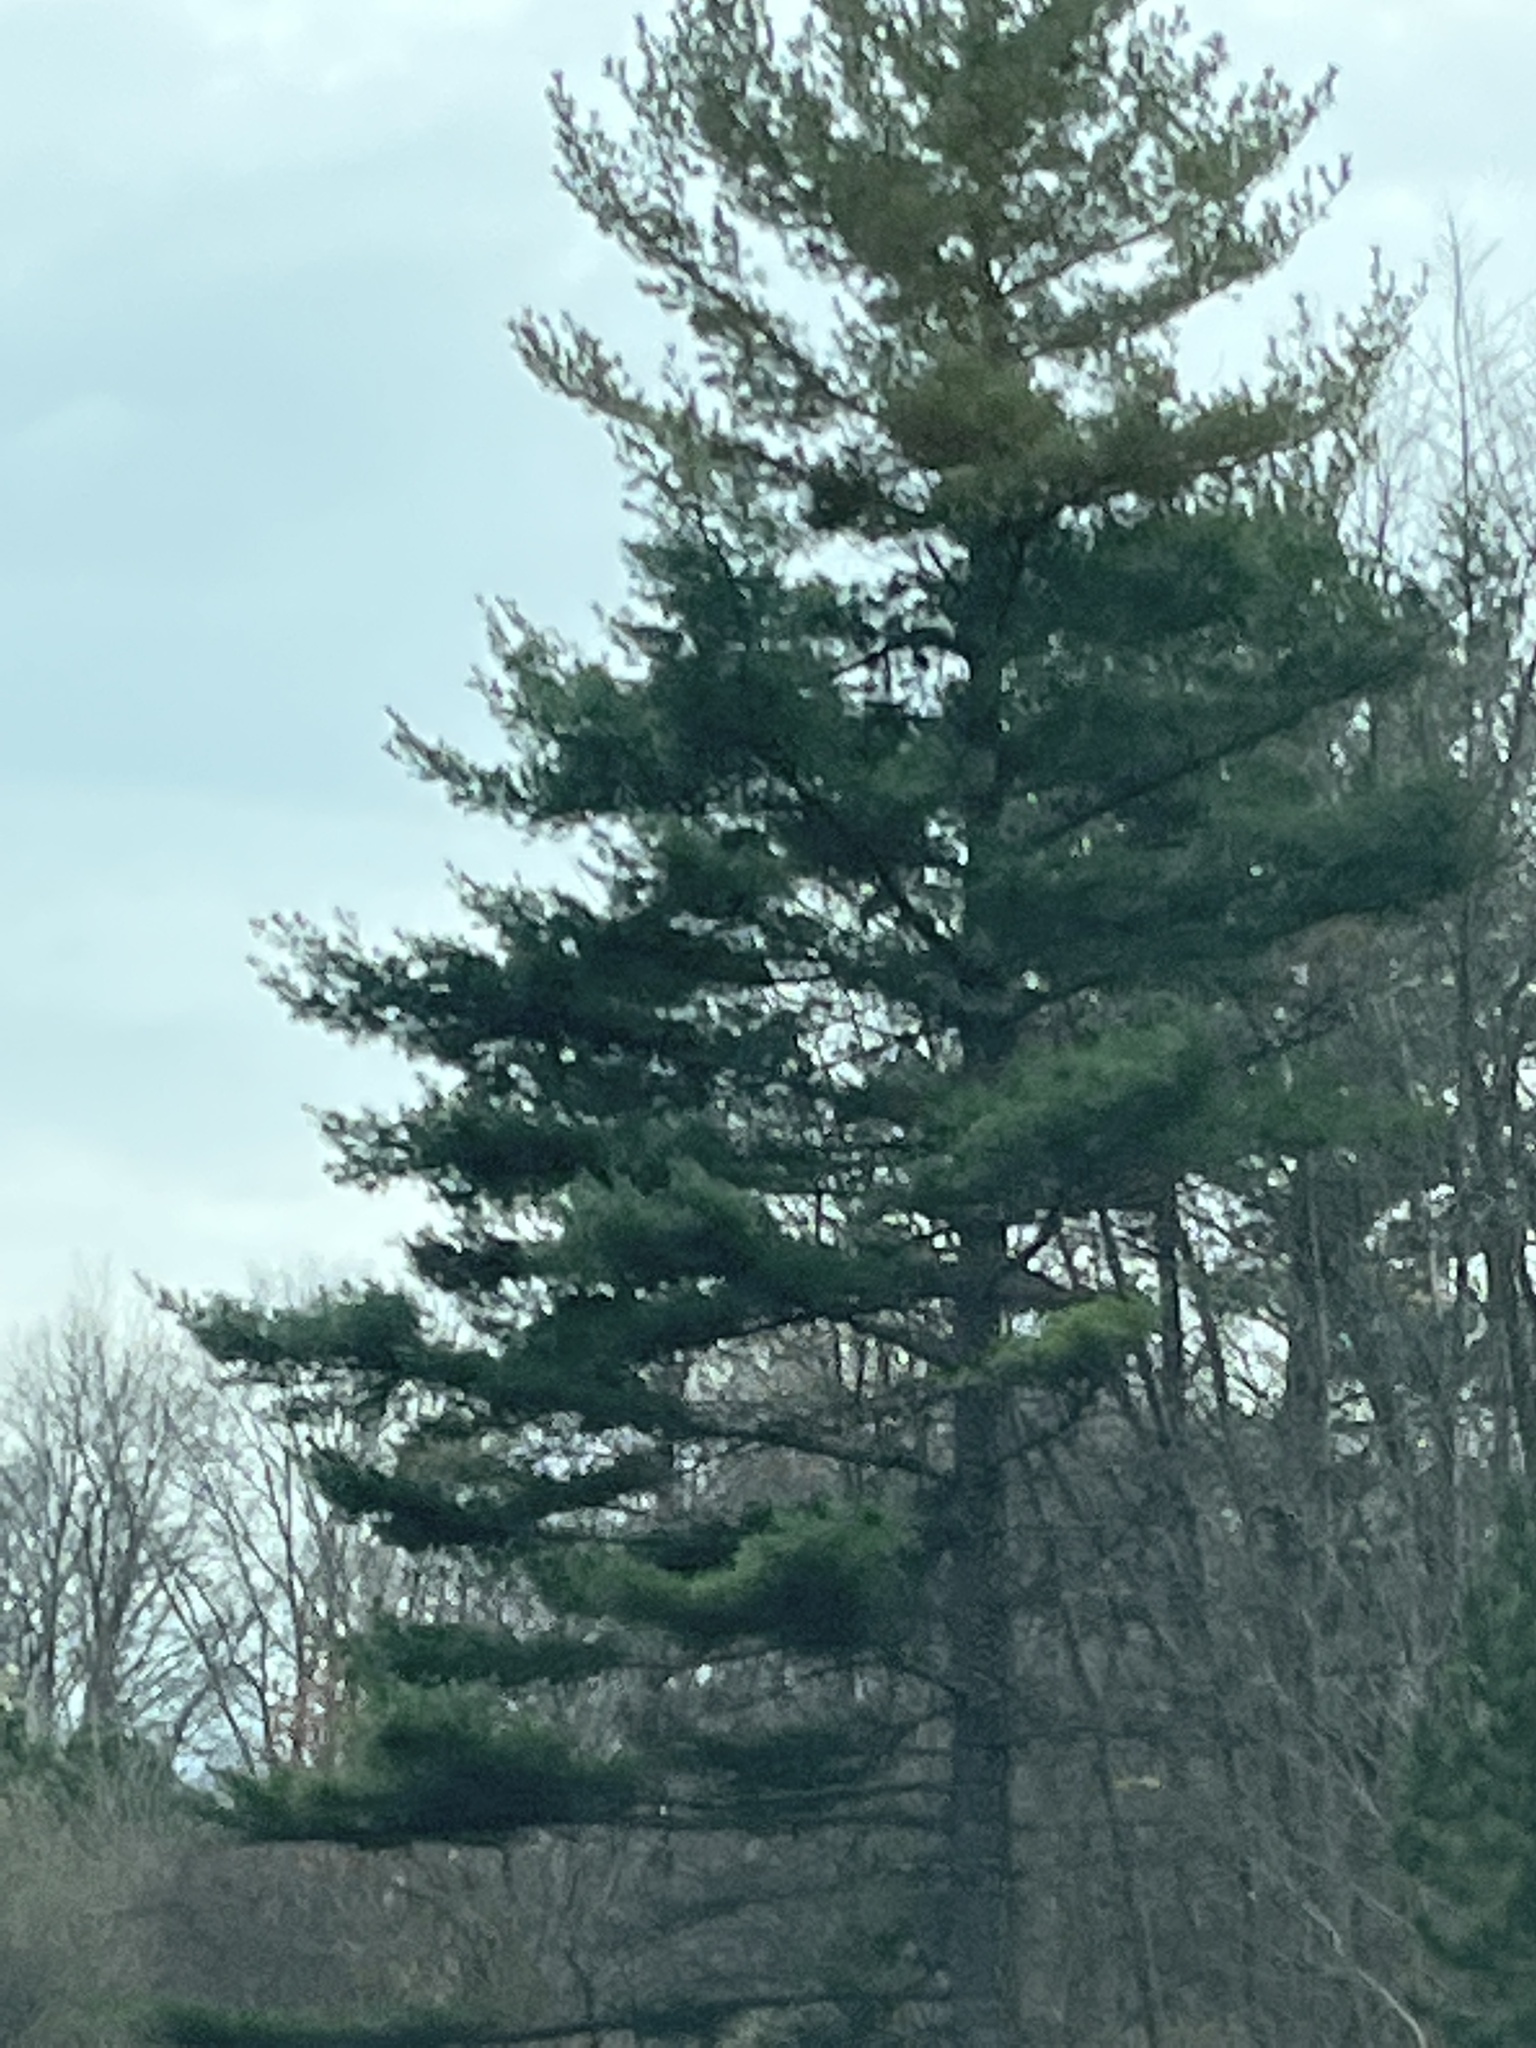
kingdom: Plantae
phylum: Tracheophyta
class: Pinopsida
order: Pinales
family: Pinaceae
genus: Pinus
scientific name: Pinus strobus
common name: Weymouth pine
